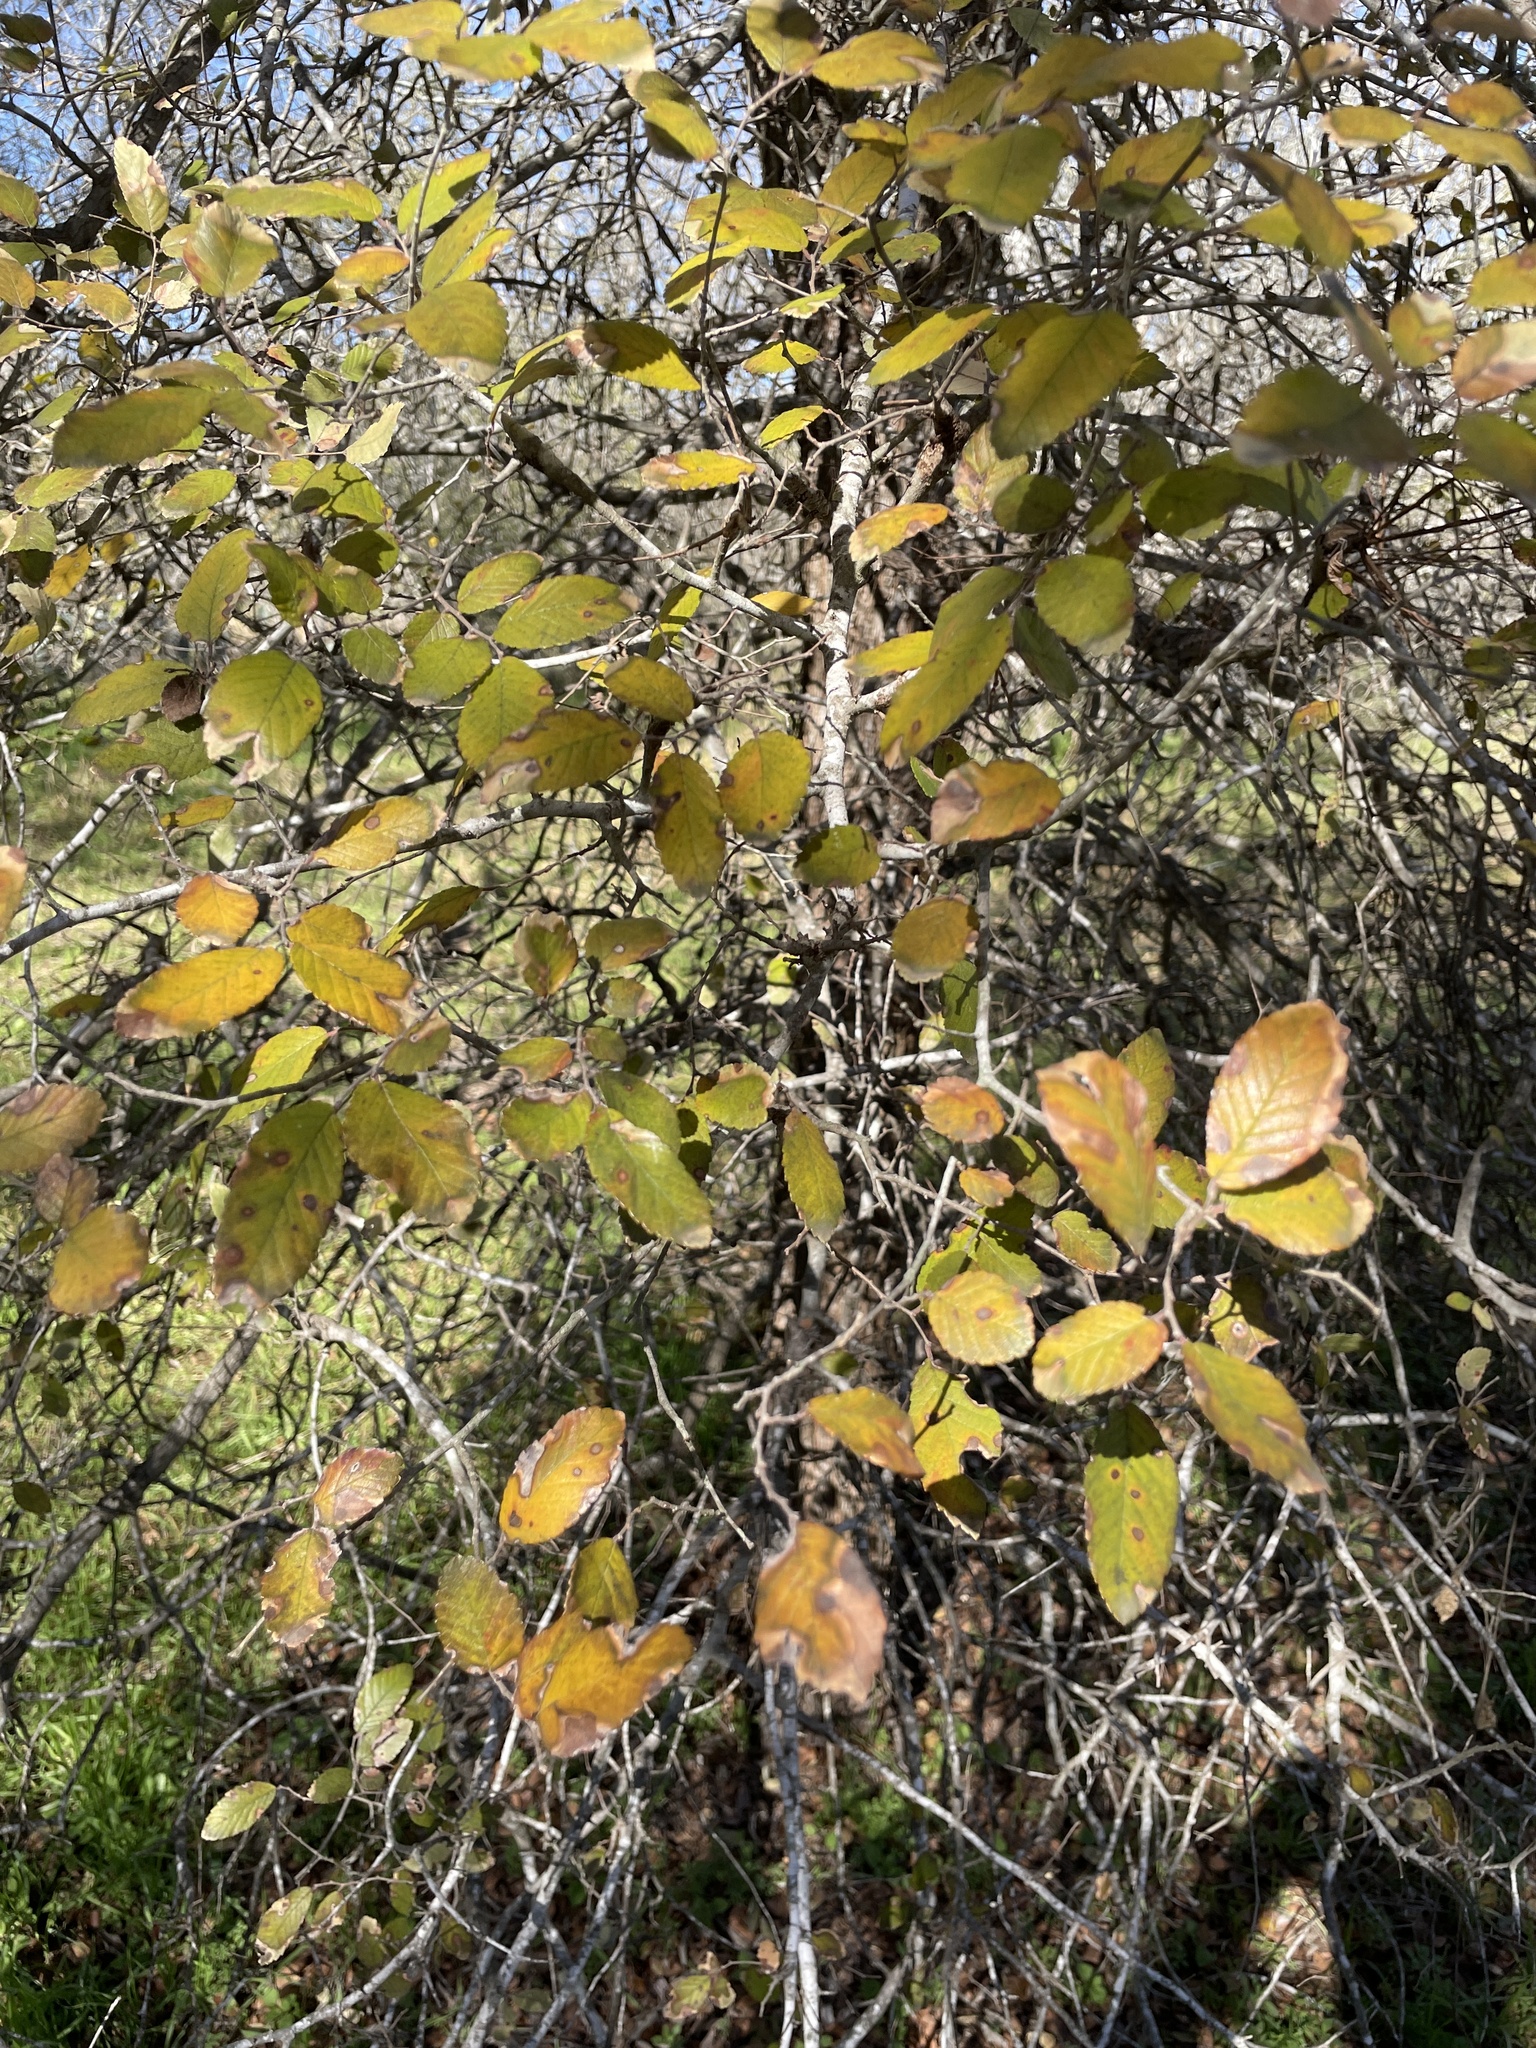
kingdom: Plantae
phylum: Tracheophyta
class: Magnoliopsida
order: Rosales
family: Ulmaceae
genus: Ulmus
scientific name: Ulmus crassifolia
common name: Basket elm
